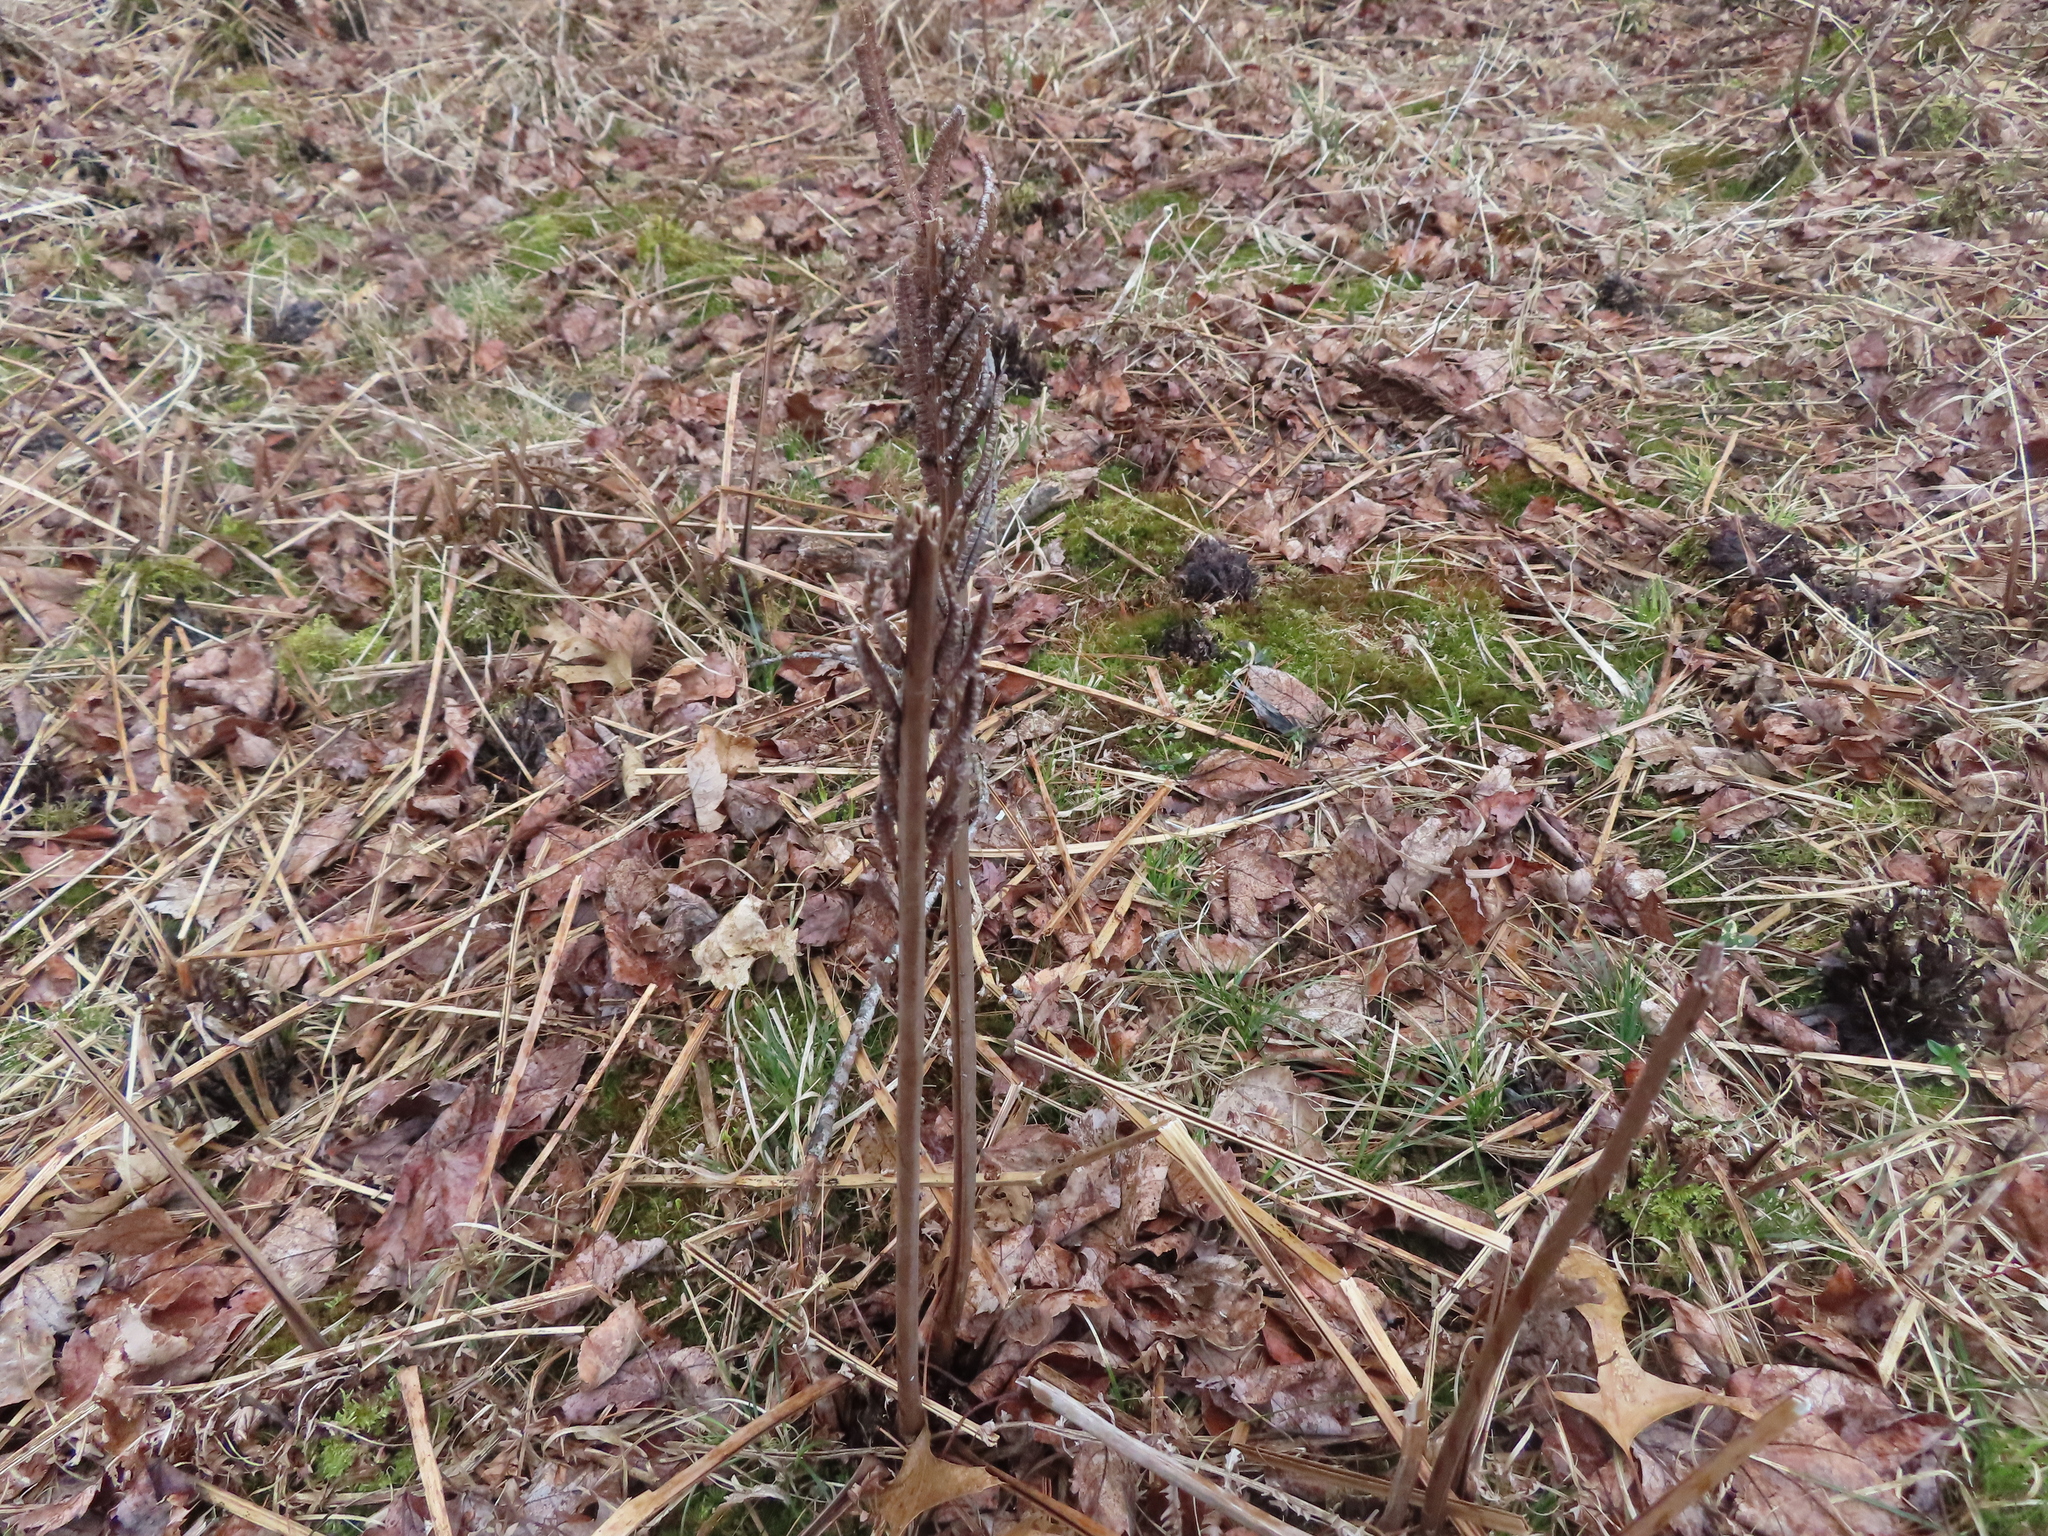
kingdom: Plantae
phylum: Tracheophyta
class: Polypodiopsida
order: Polypodiales
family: Onocleaceae
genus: Onoclea
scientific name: Onoclea sensibilis
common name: Sensitive fern
